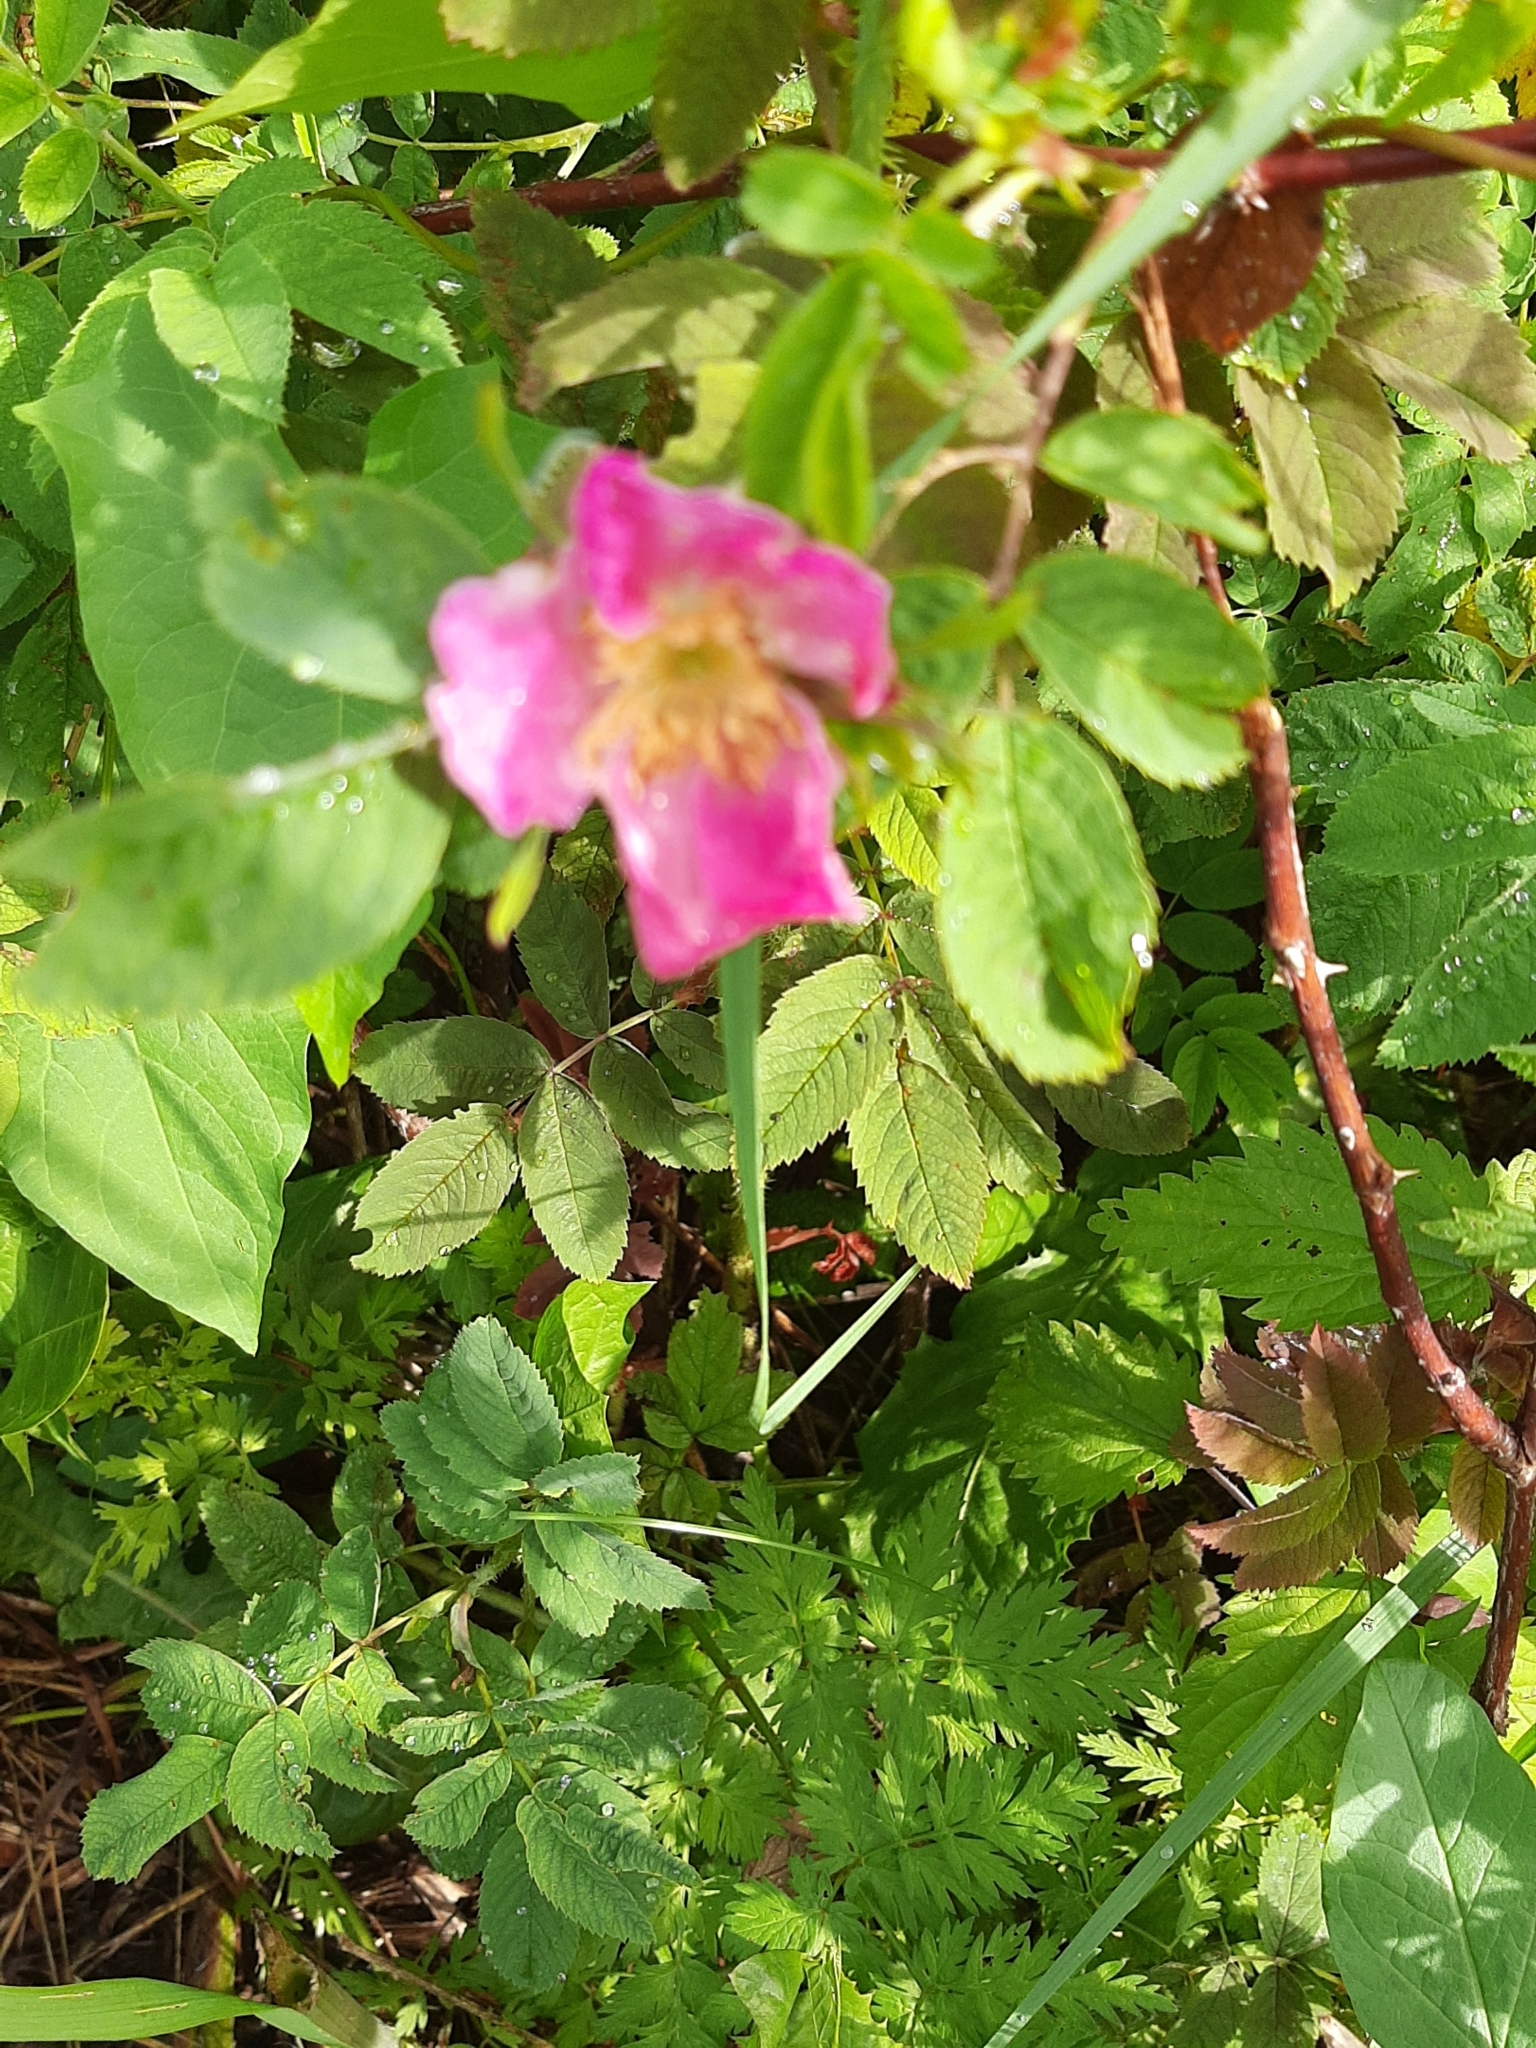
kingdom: Plantae
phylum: Tracheophyta
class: Magnoliopsida
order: Rosales
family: Rosaceae
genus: Rosa
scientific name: Rosa
